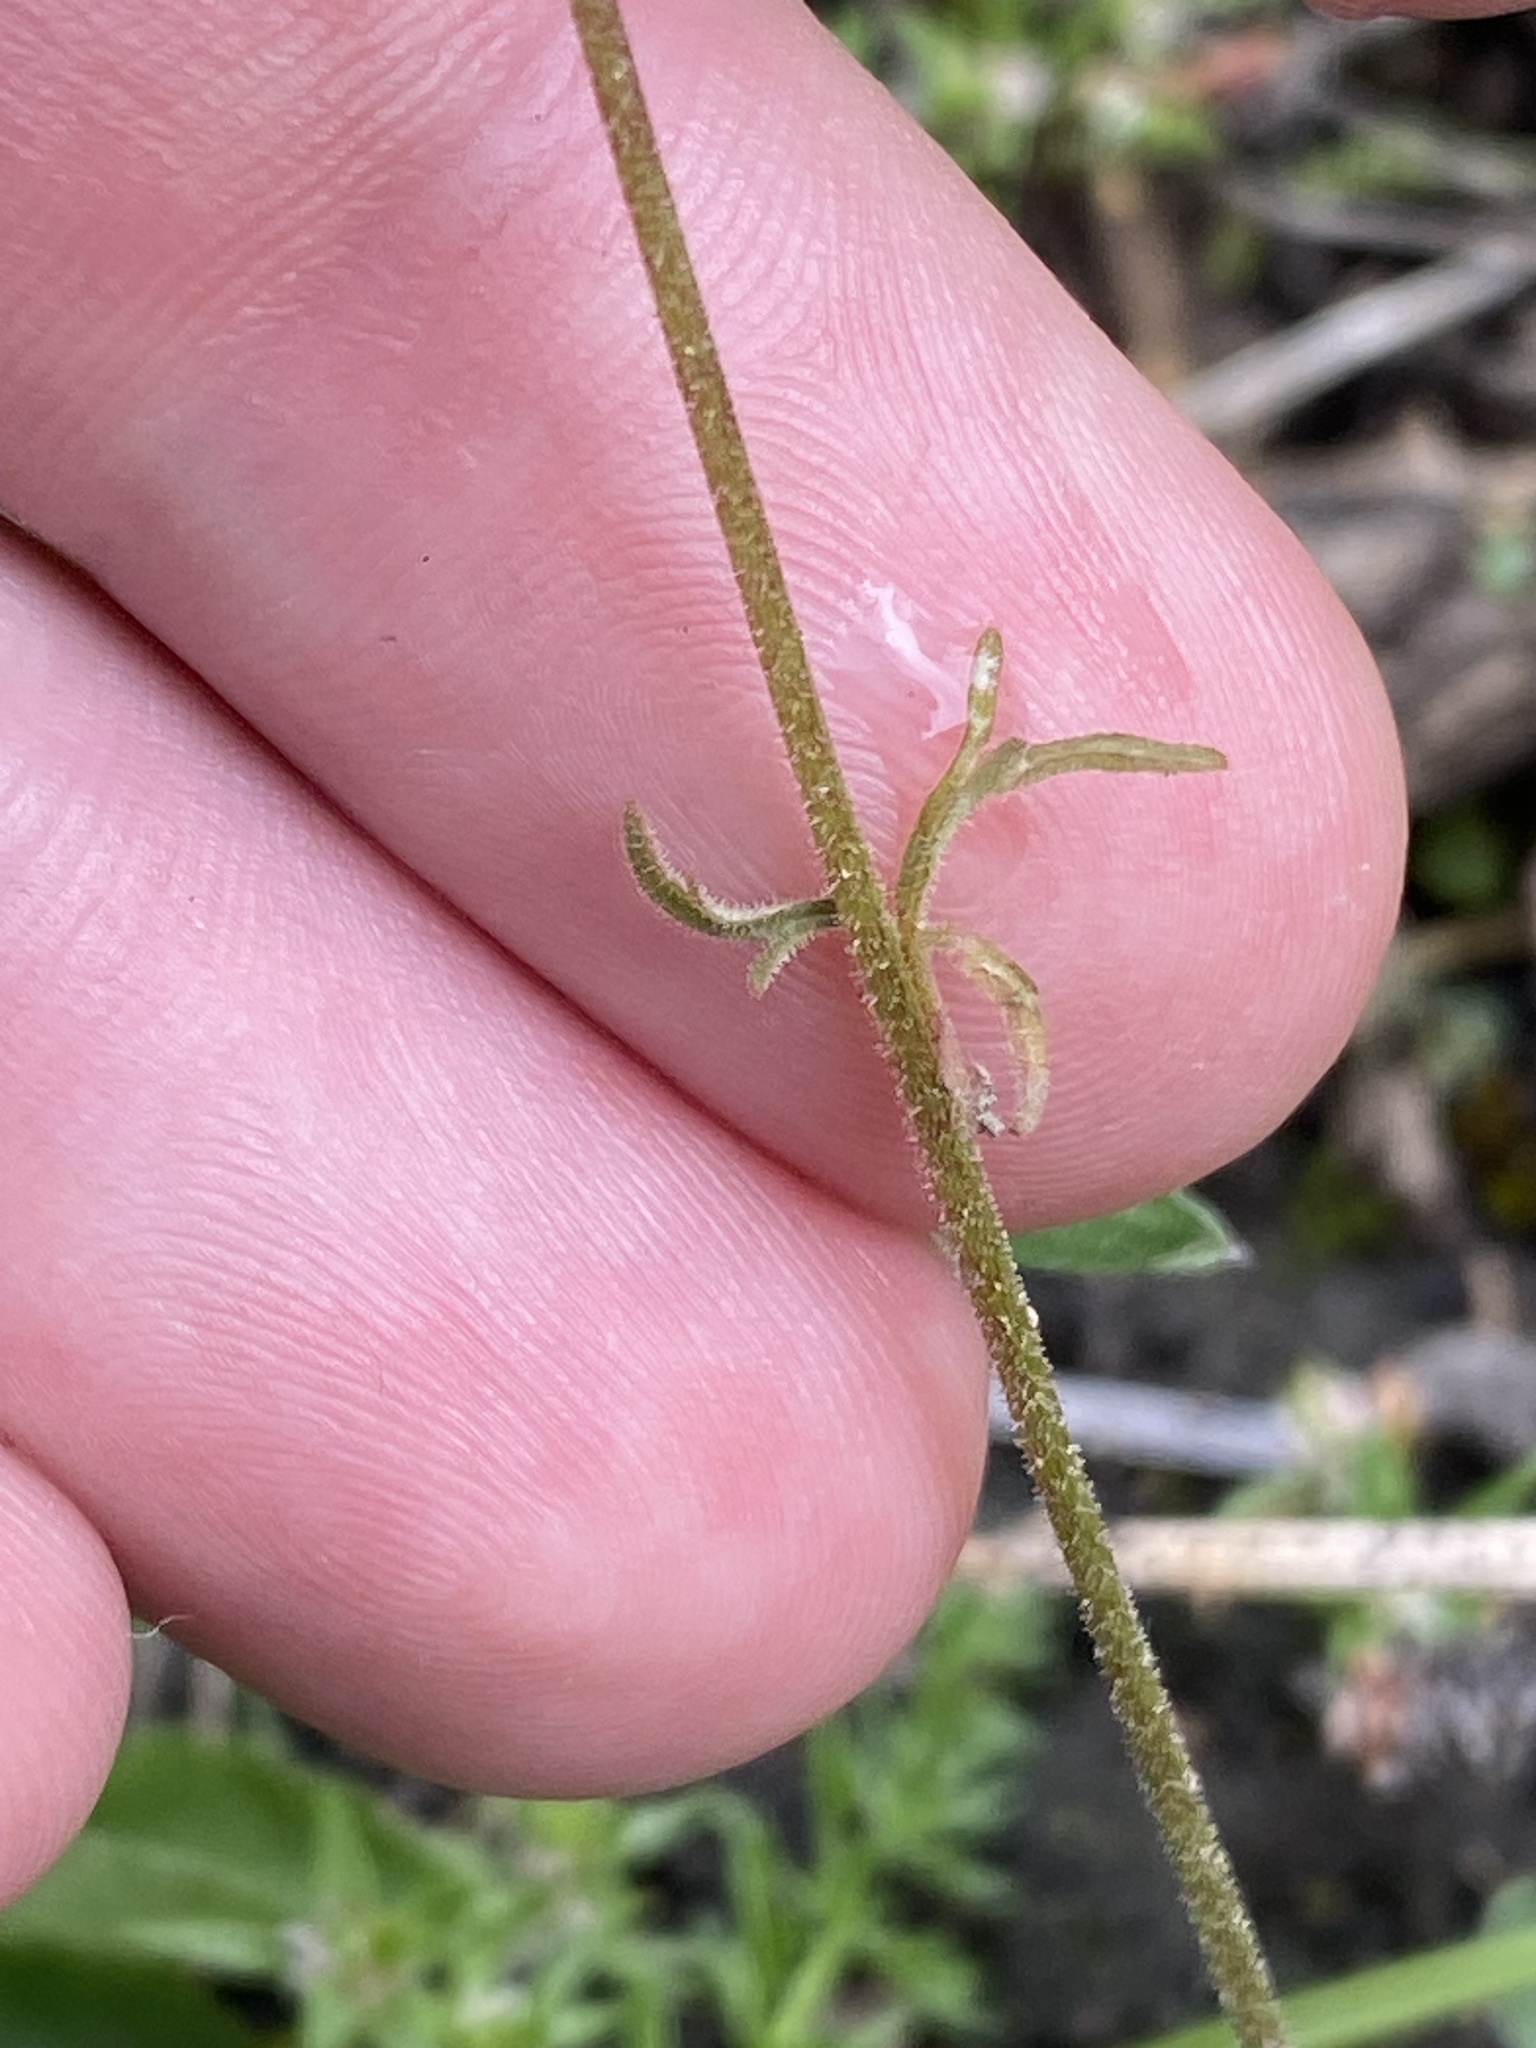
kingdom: Plantae
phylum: Tracheophyta
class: Magnoliopsida
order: Saxifragales
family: Saxifragaceae
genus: Lithophragma
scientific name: Lithophragma tenella
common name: Slender fringe-cup
